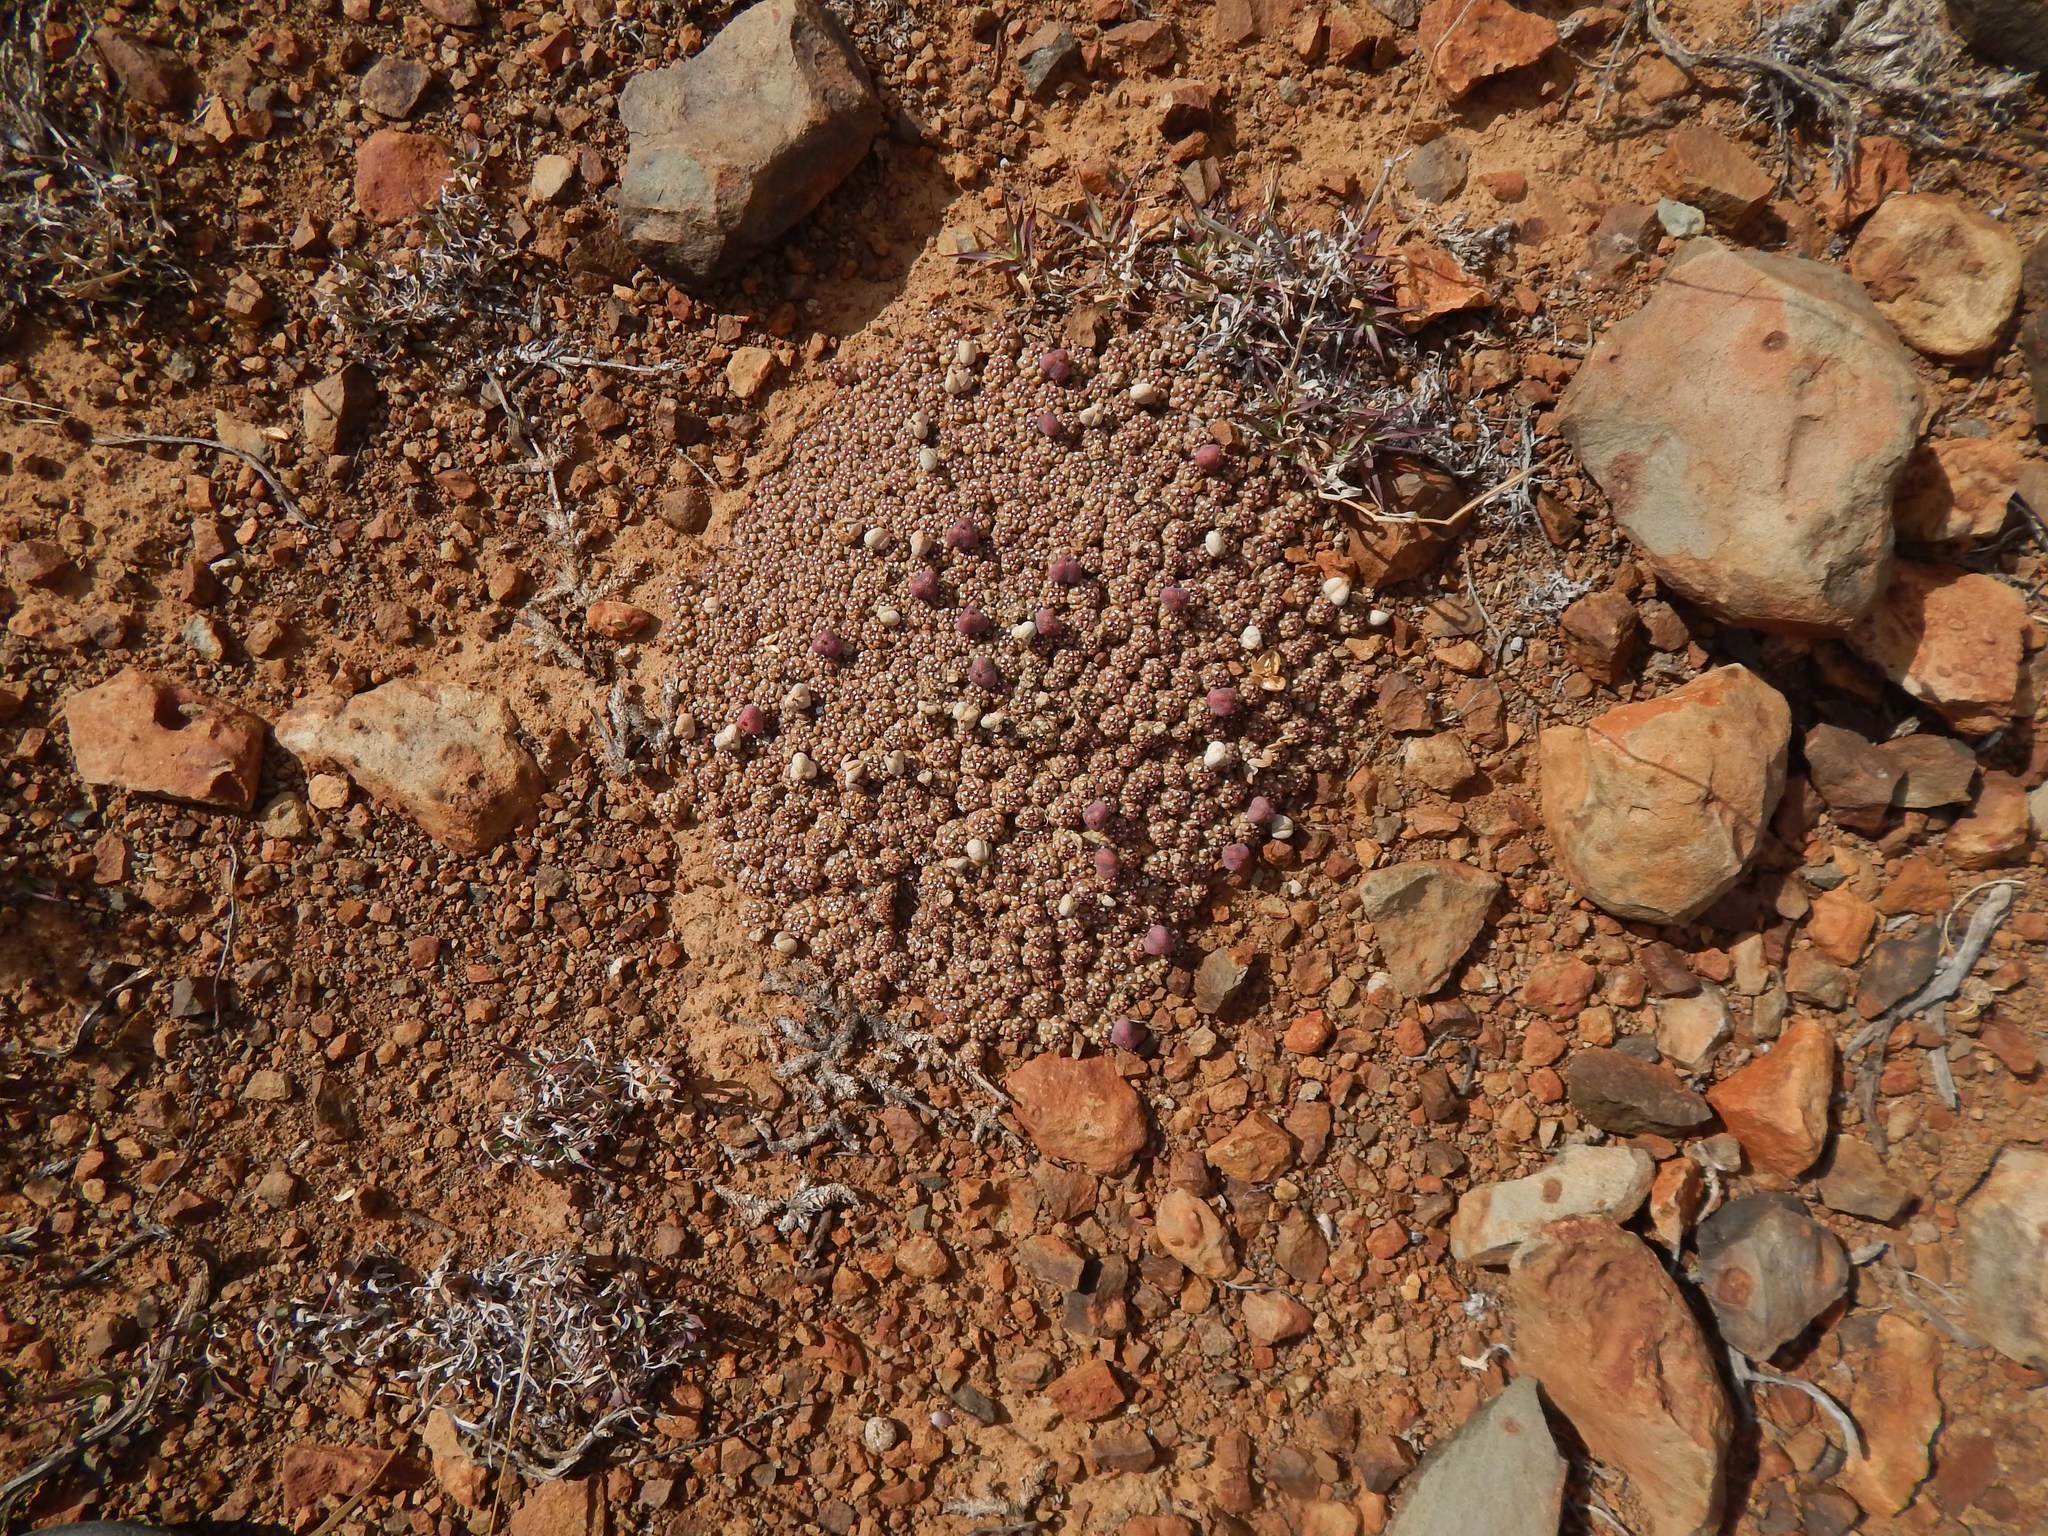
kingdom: Plantae
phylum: Tracheophyta
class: Magnoliopsida
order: Malpighiales
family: Euphorbiaceae
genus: Euphorbia
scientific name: Euphorbia clavarioides
